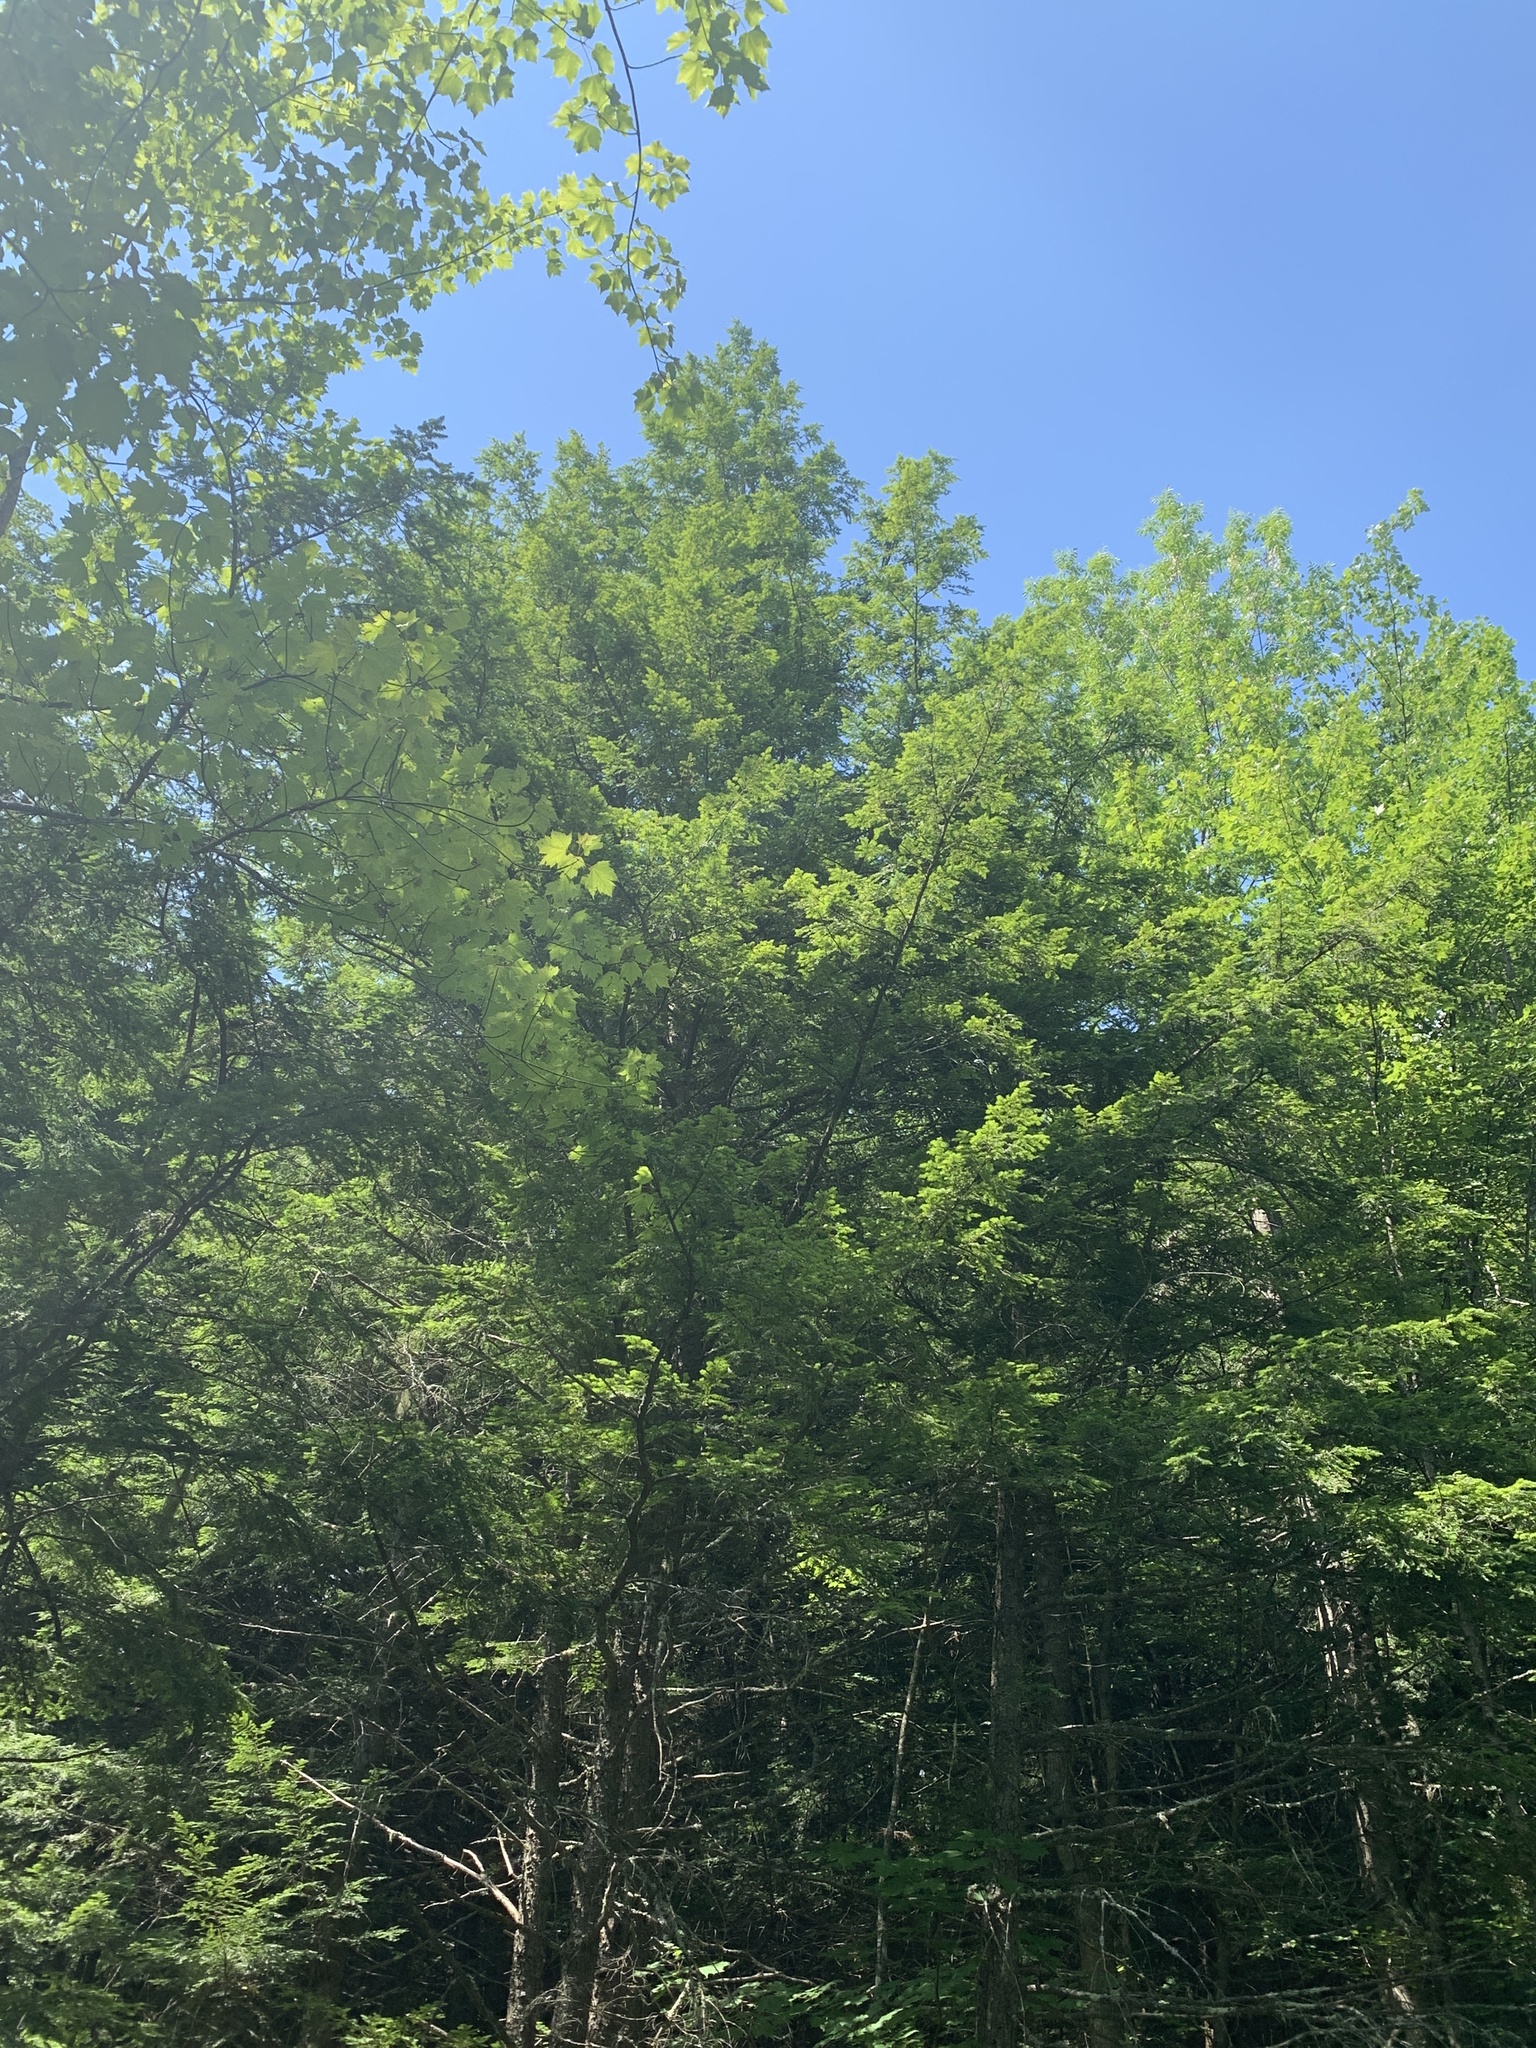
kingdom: Plantae
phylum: Tracheophyta
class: Pinopsida
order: Pinales
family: Pinaceae
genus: Tsuga
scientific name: Tsuga canadensis
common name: Eastern hemlock
